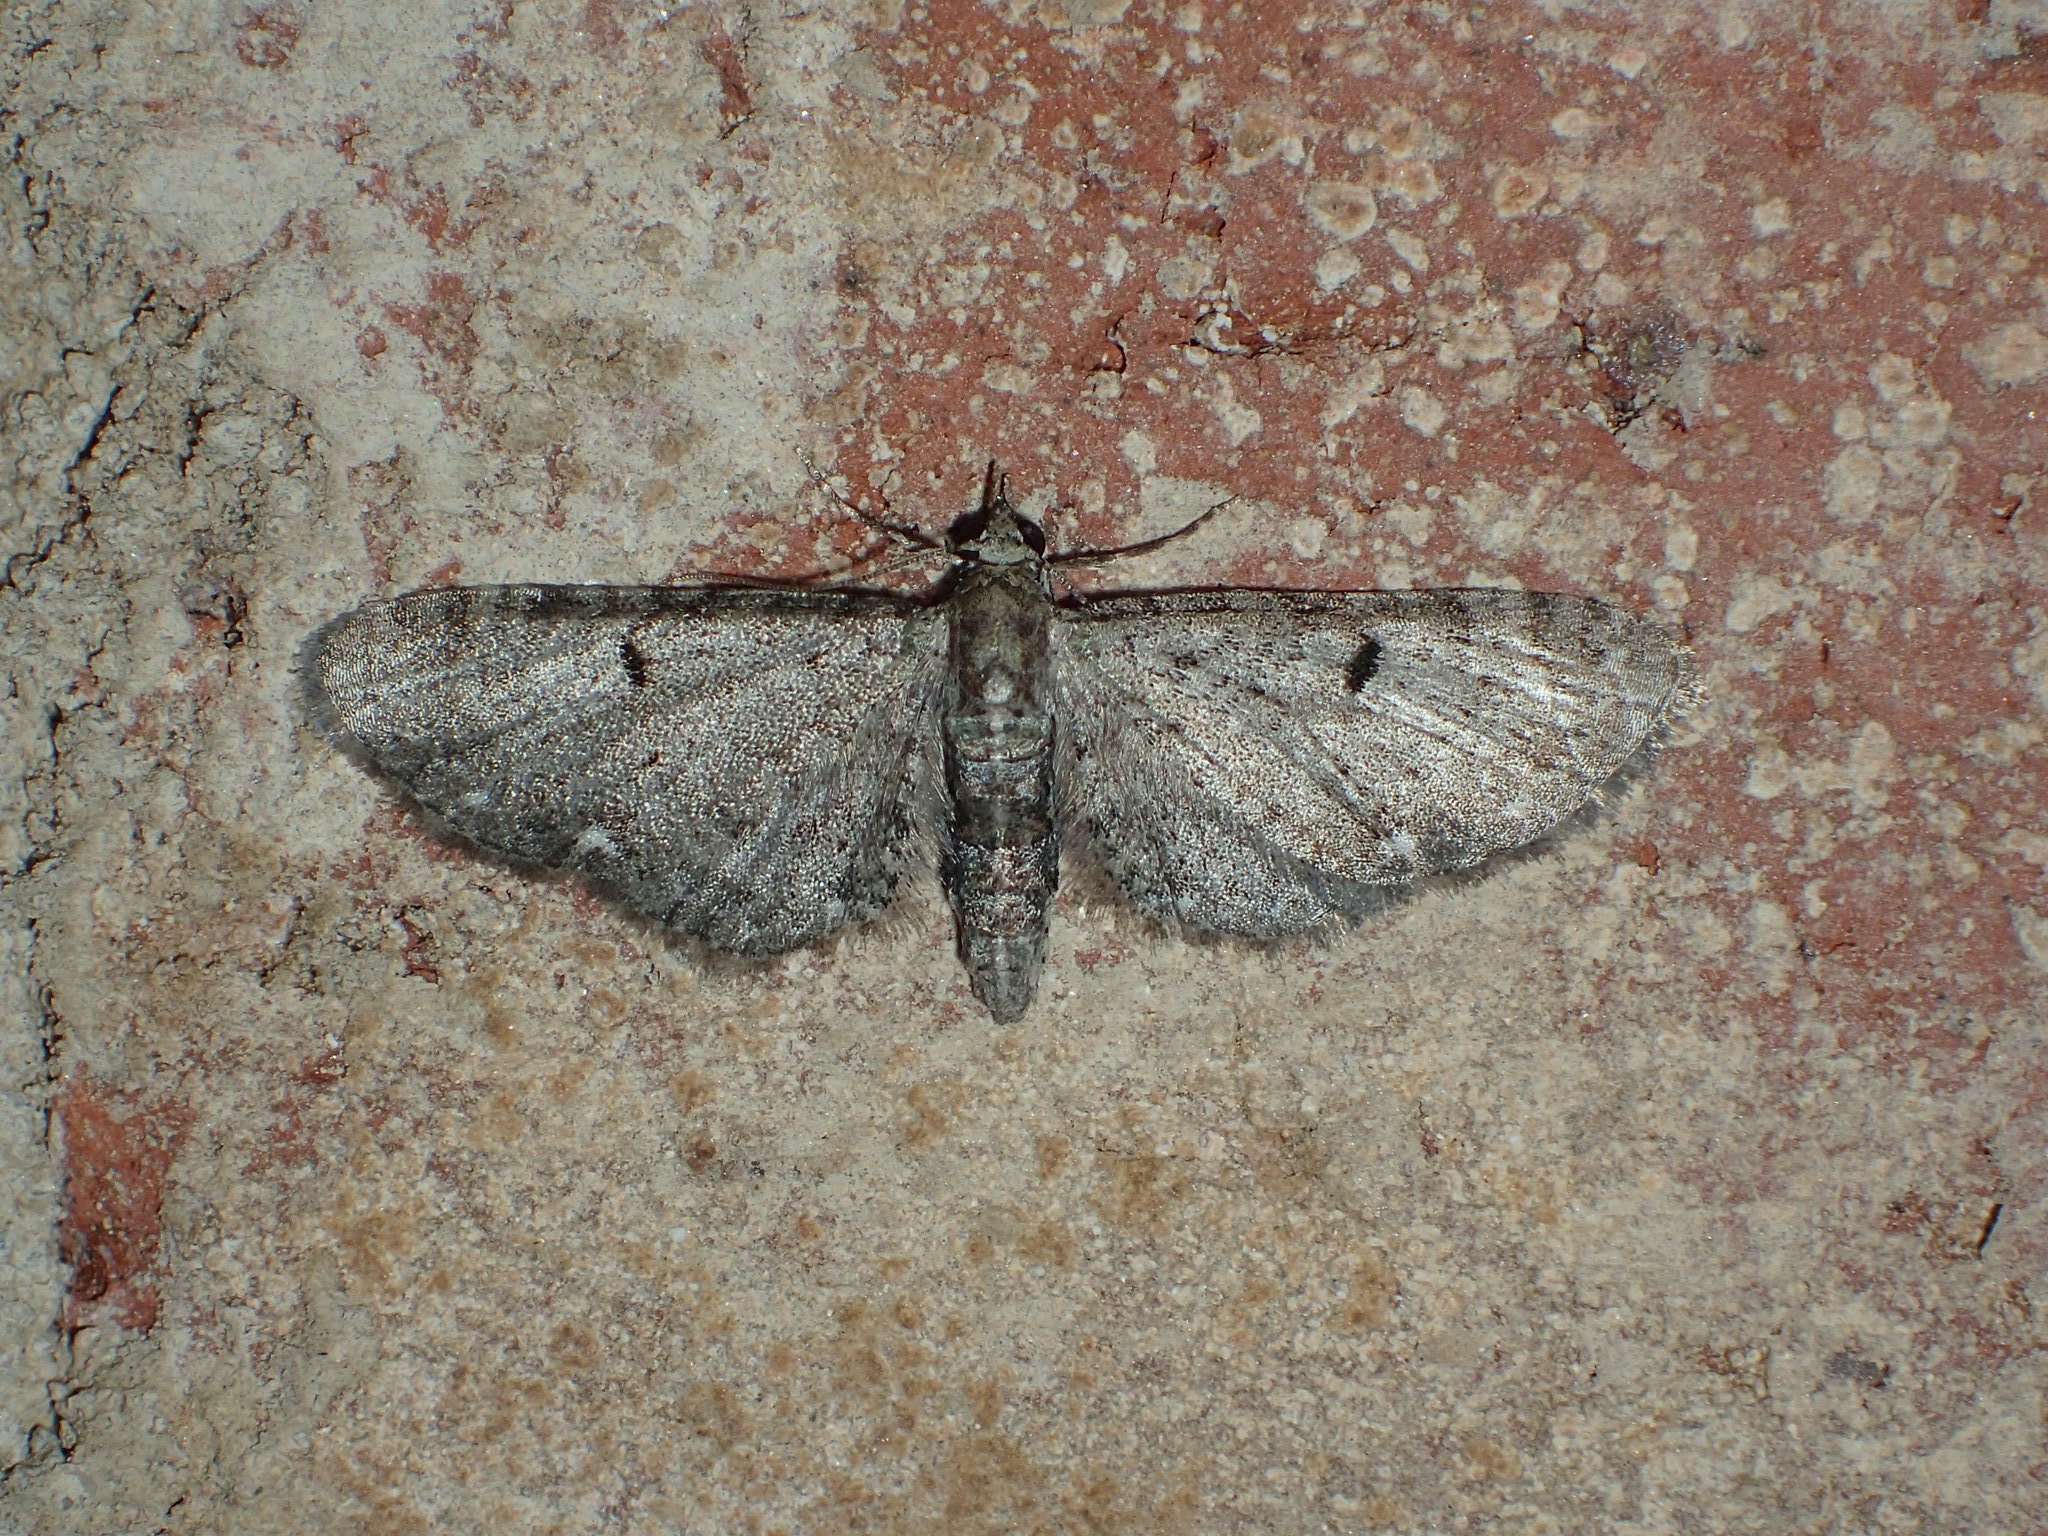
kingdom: Animalia
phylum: Arthropoda
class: Insecta
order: Lepidoptera
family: Geometridae
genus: Eupithecia
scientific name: Eupithecia miserulata
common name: Common eupithecia
